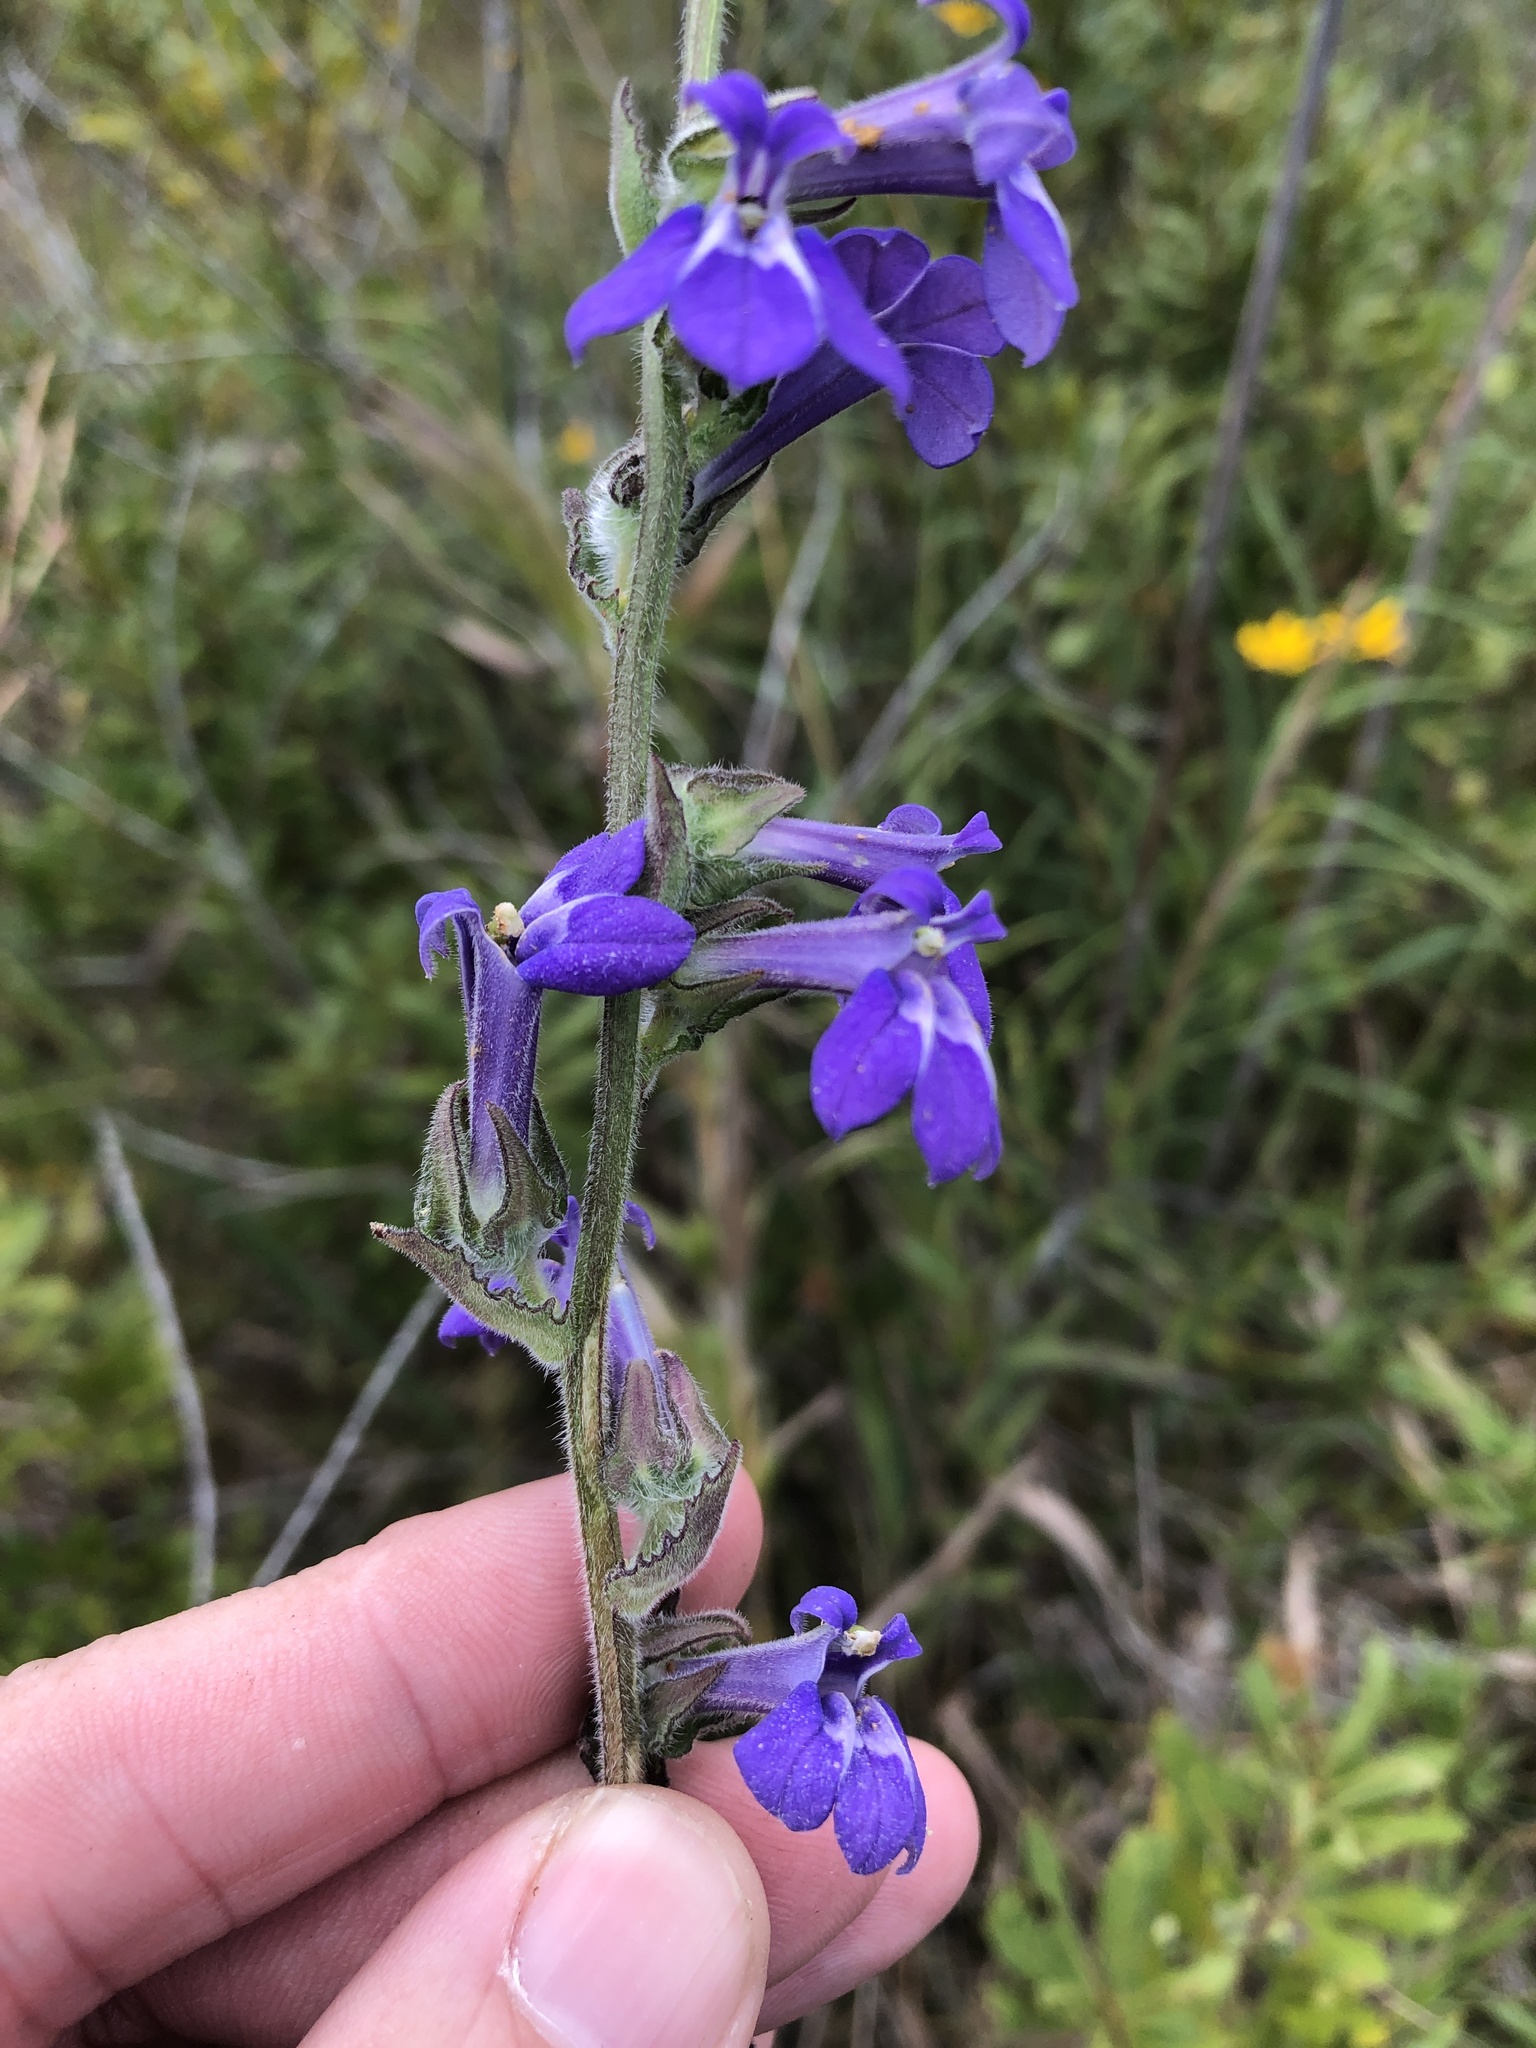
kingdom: Plantae
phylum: Tracheophyta
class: Magnoliopsida
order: Asterales
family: Campanulaceae
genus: Lobelia
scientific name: Lobelia puberula
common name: Purple dewdrop
